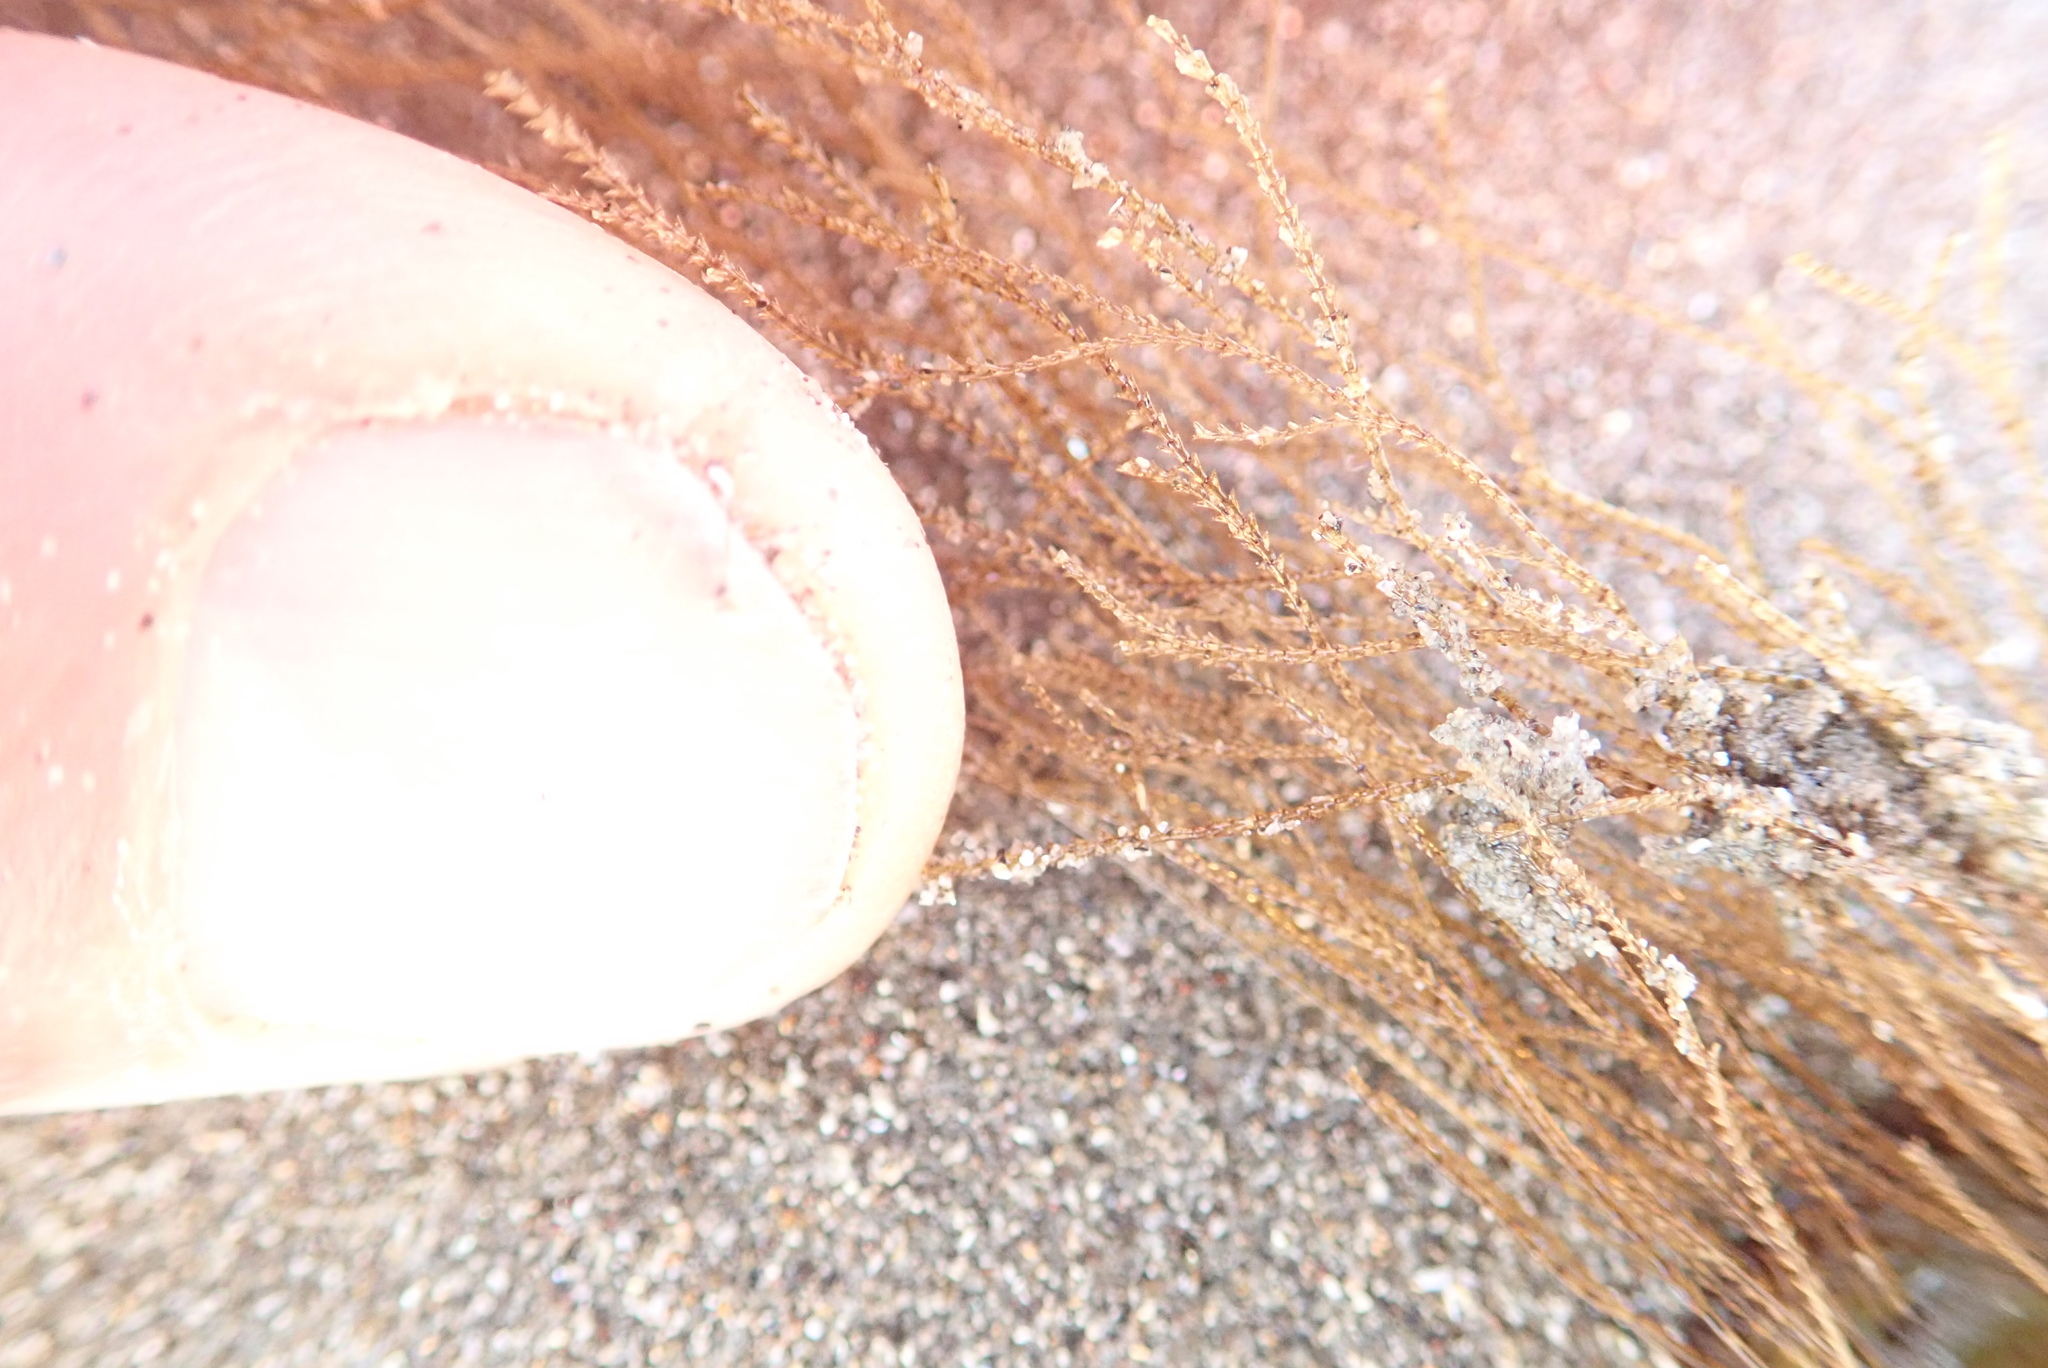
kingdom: Animalia
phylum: Cnidaria
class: Hydrozoa
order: Leptothecata
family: Sertulariidae
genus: Amphisbetia
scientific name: Amphisbetia bispinosa
